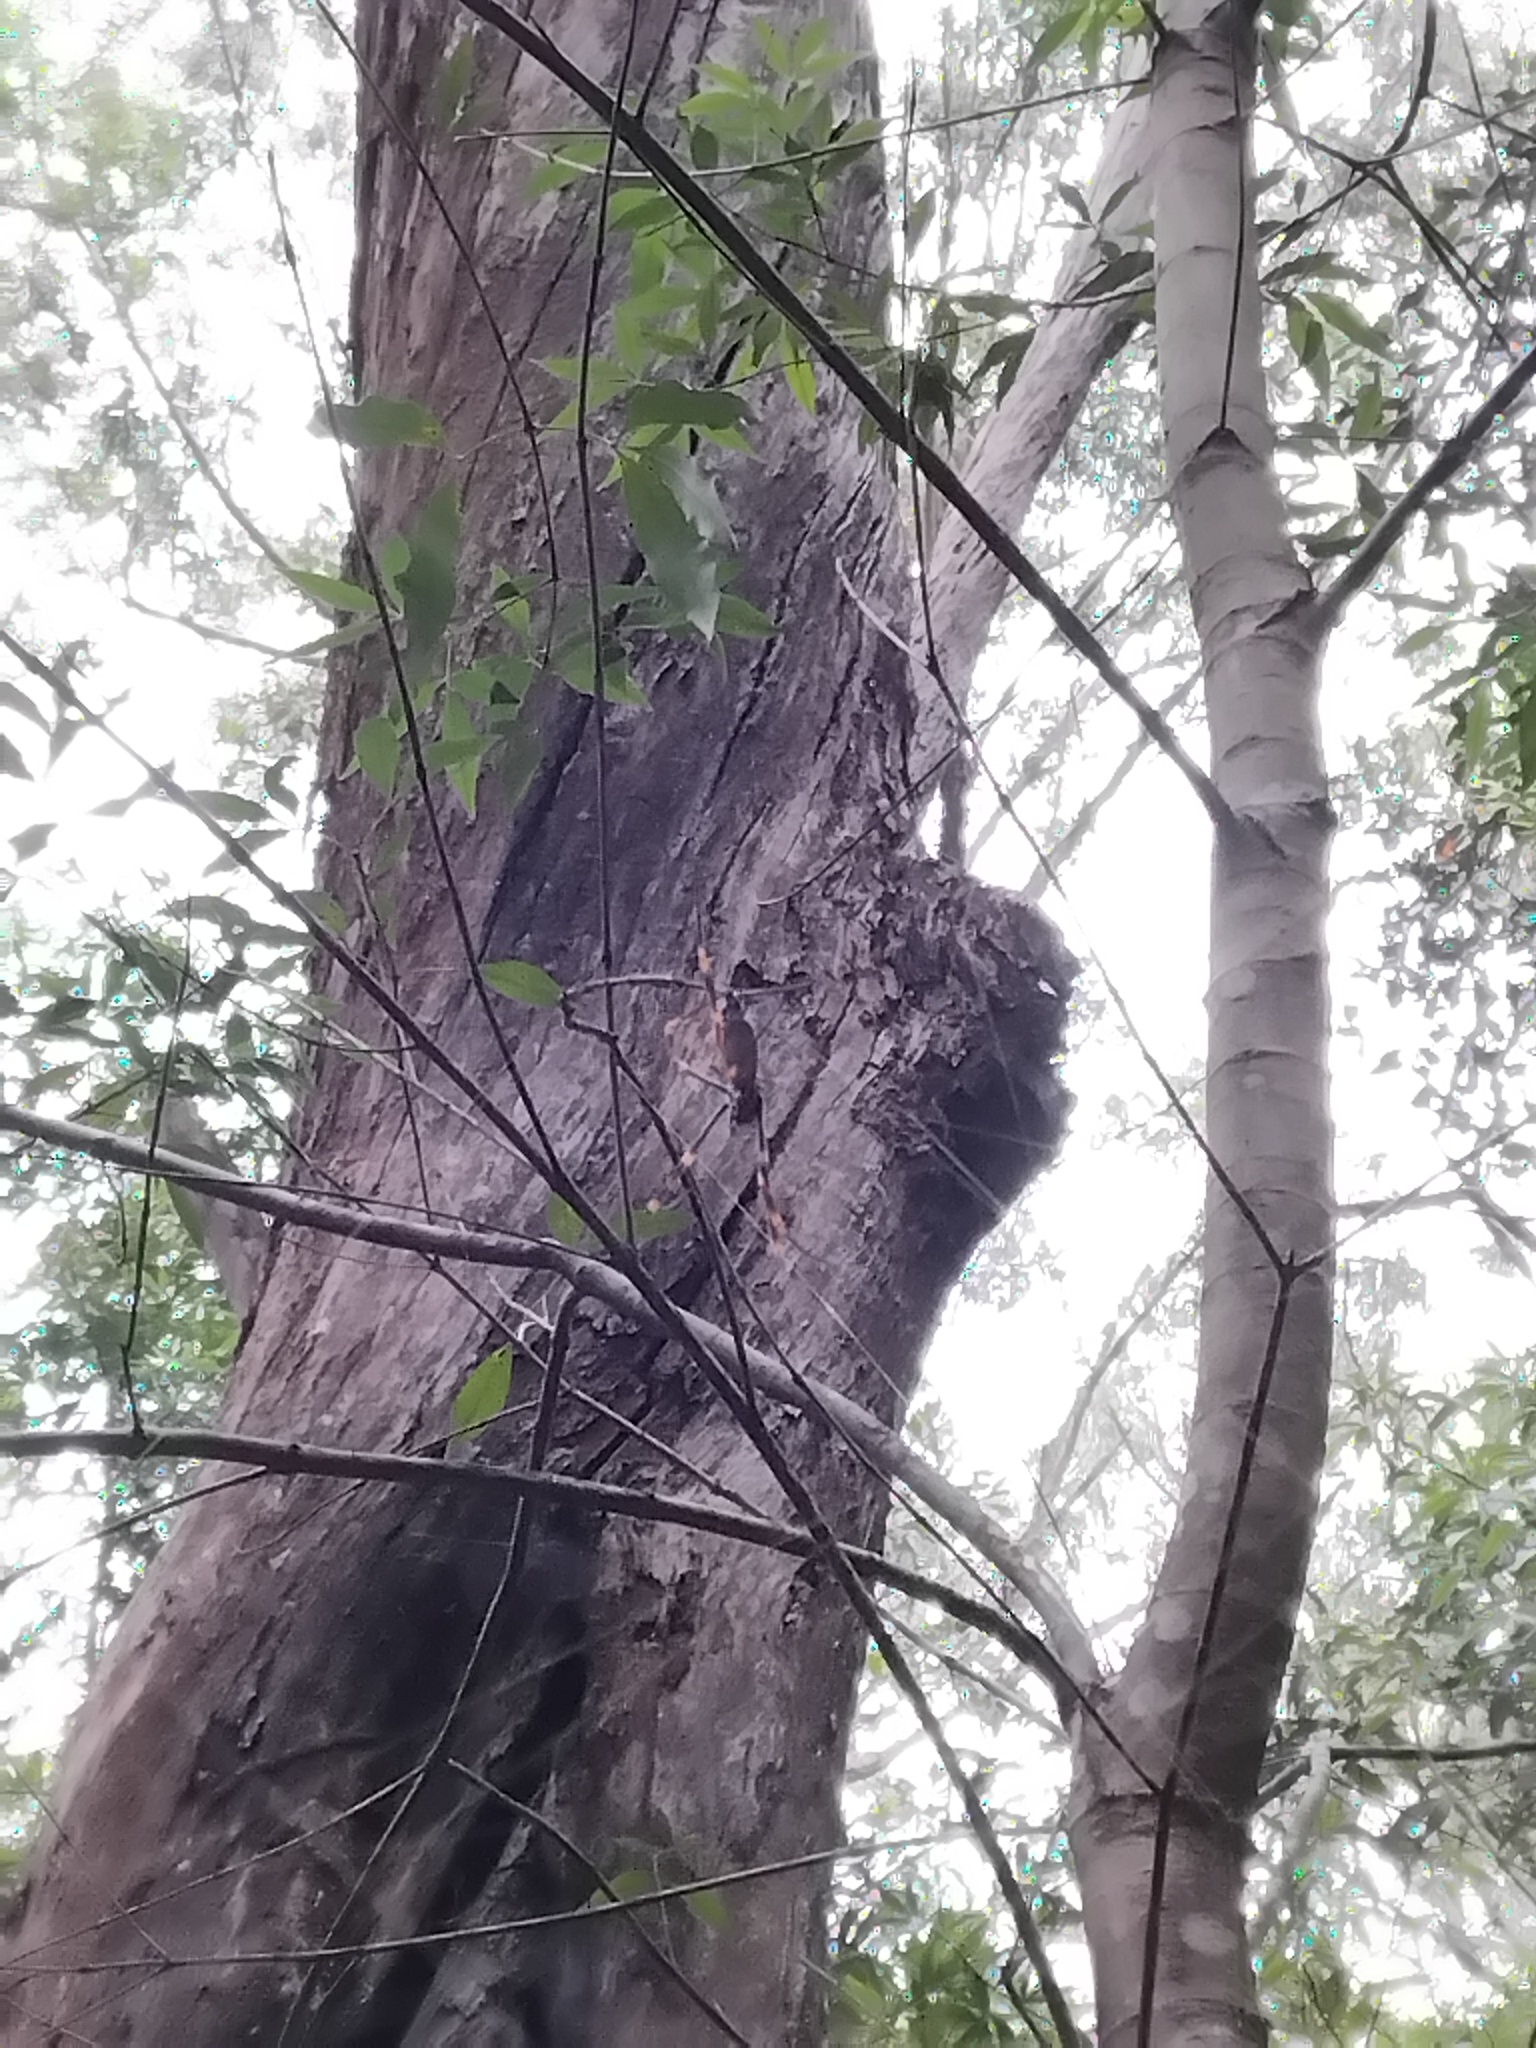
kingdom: Animalia
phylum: Arthropoda
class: Arachnida
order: Araneae
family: Araneidae
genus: Trichonephila
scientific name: Trichonephila plumipes
